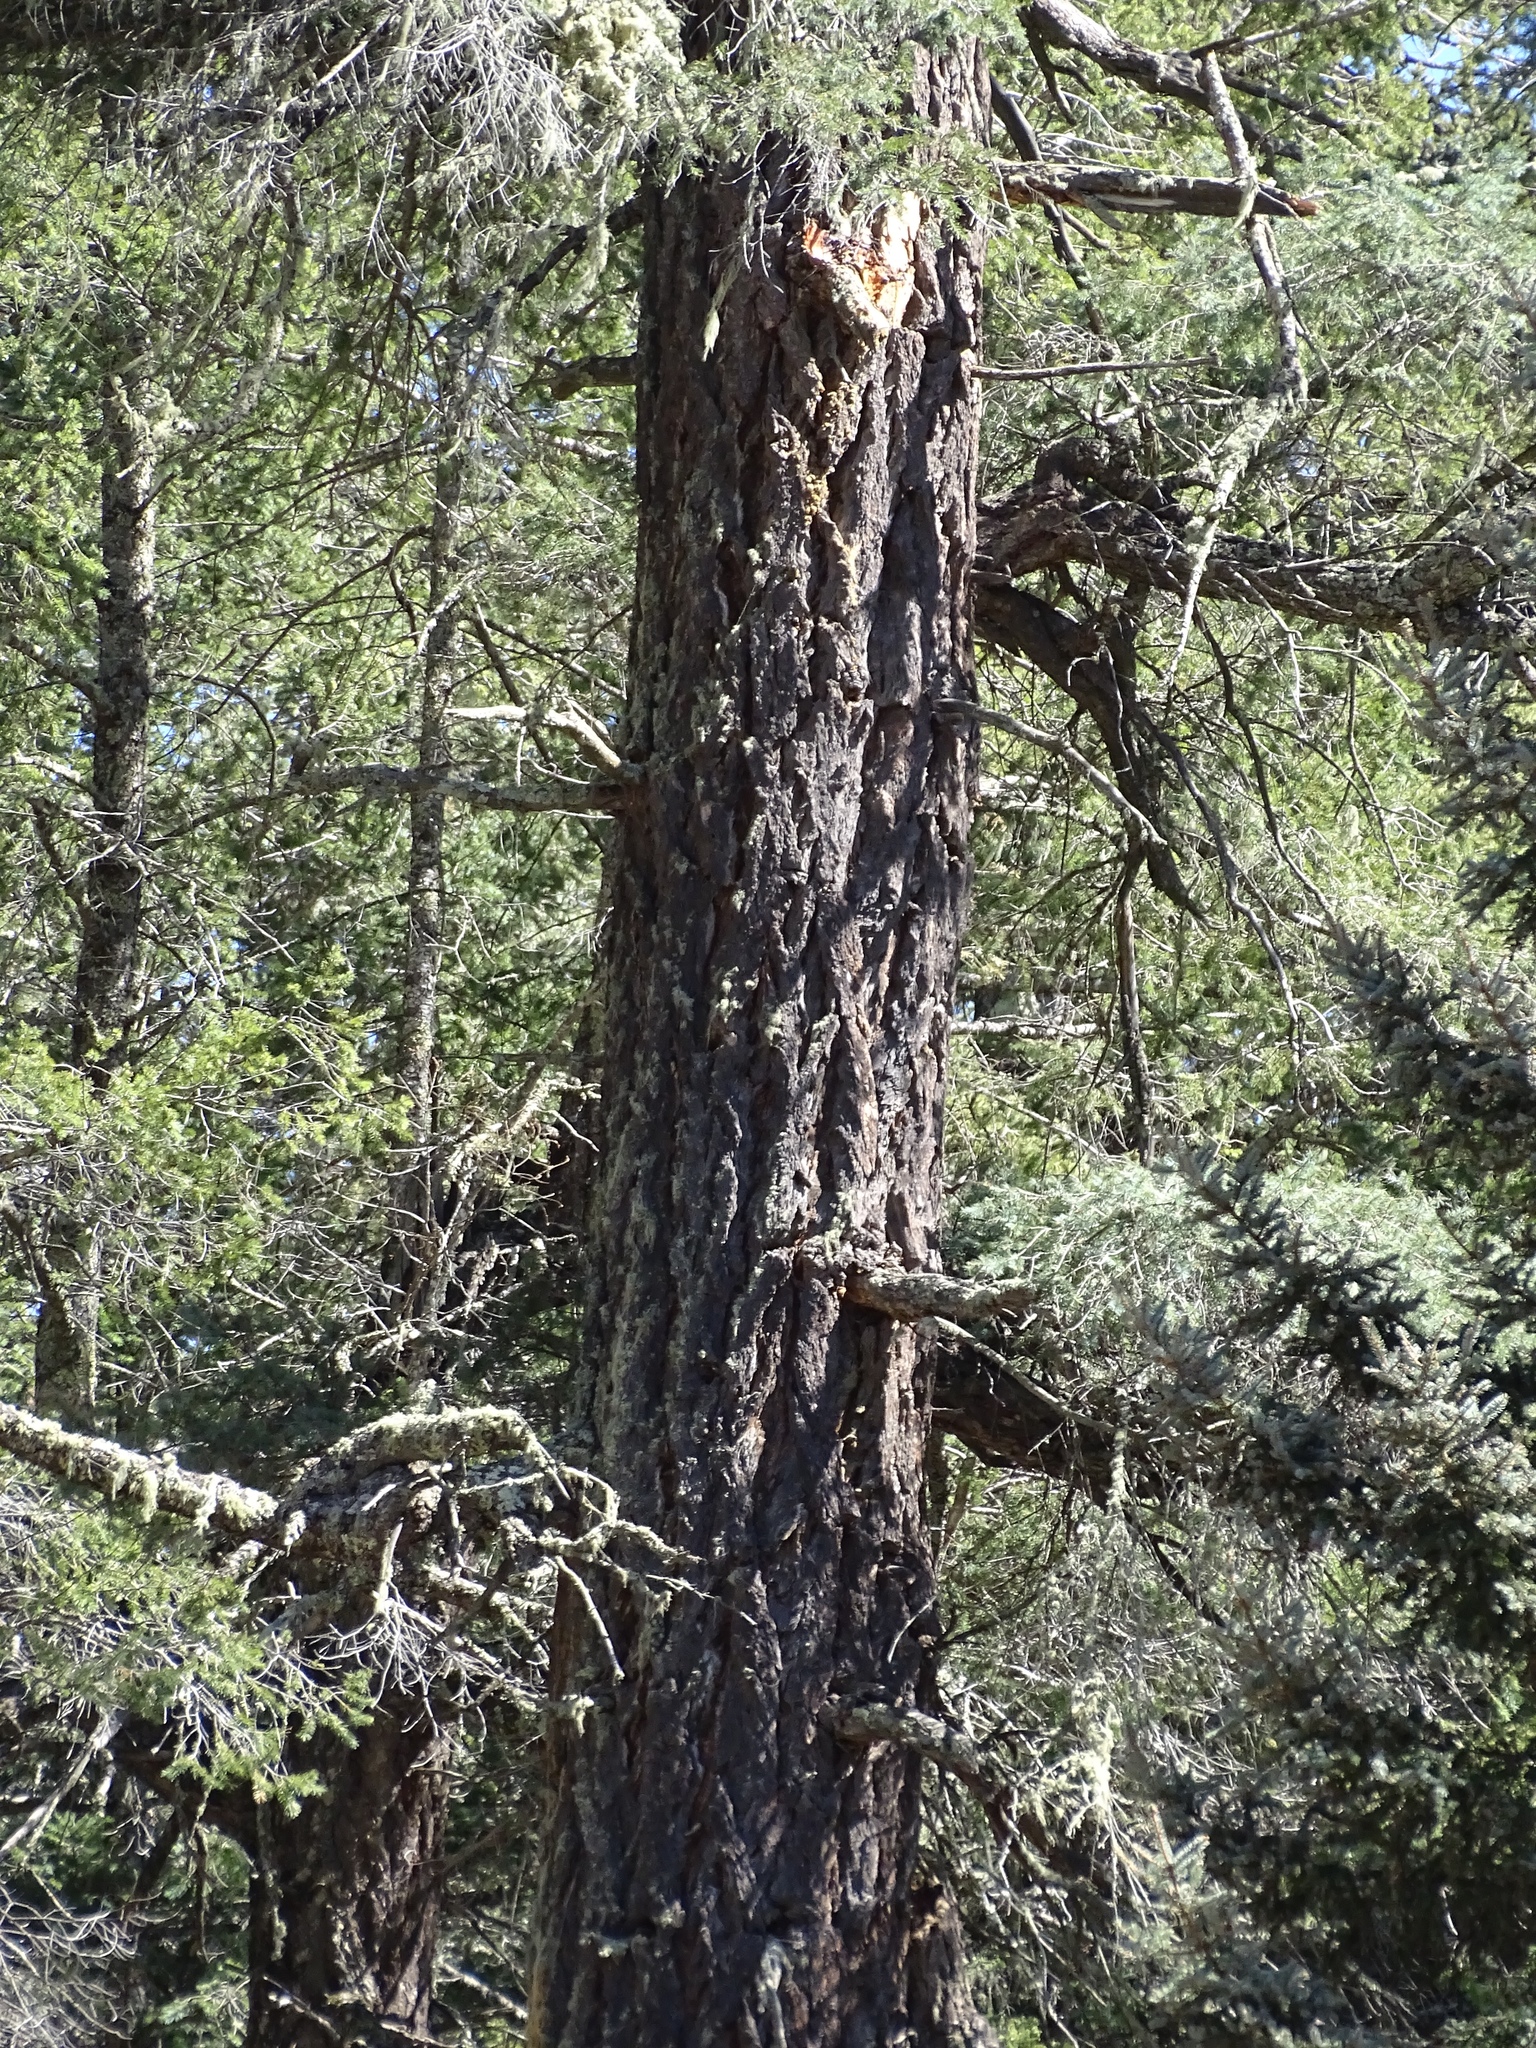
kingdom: Plantae
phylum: Tracheophyta
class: Pinopsida
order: Pinales
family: Pinaceae
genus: Pseudotsuga
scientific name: Pseudotsuga menziesii
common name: Douglas fir
